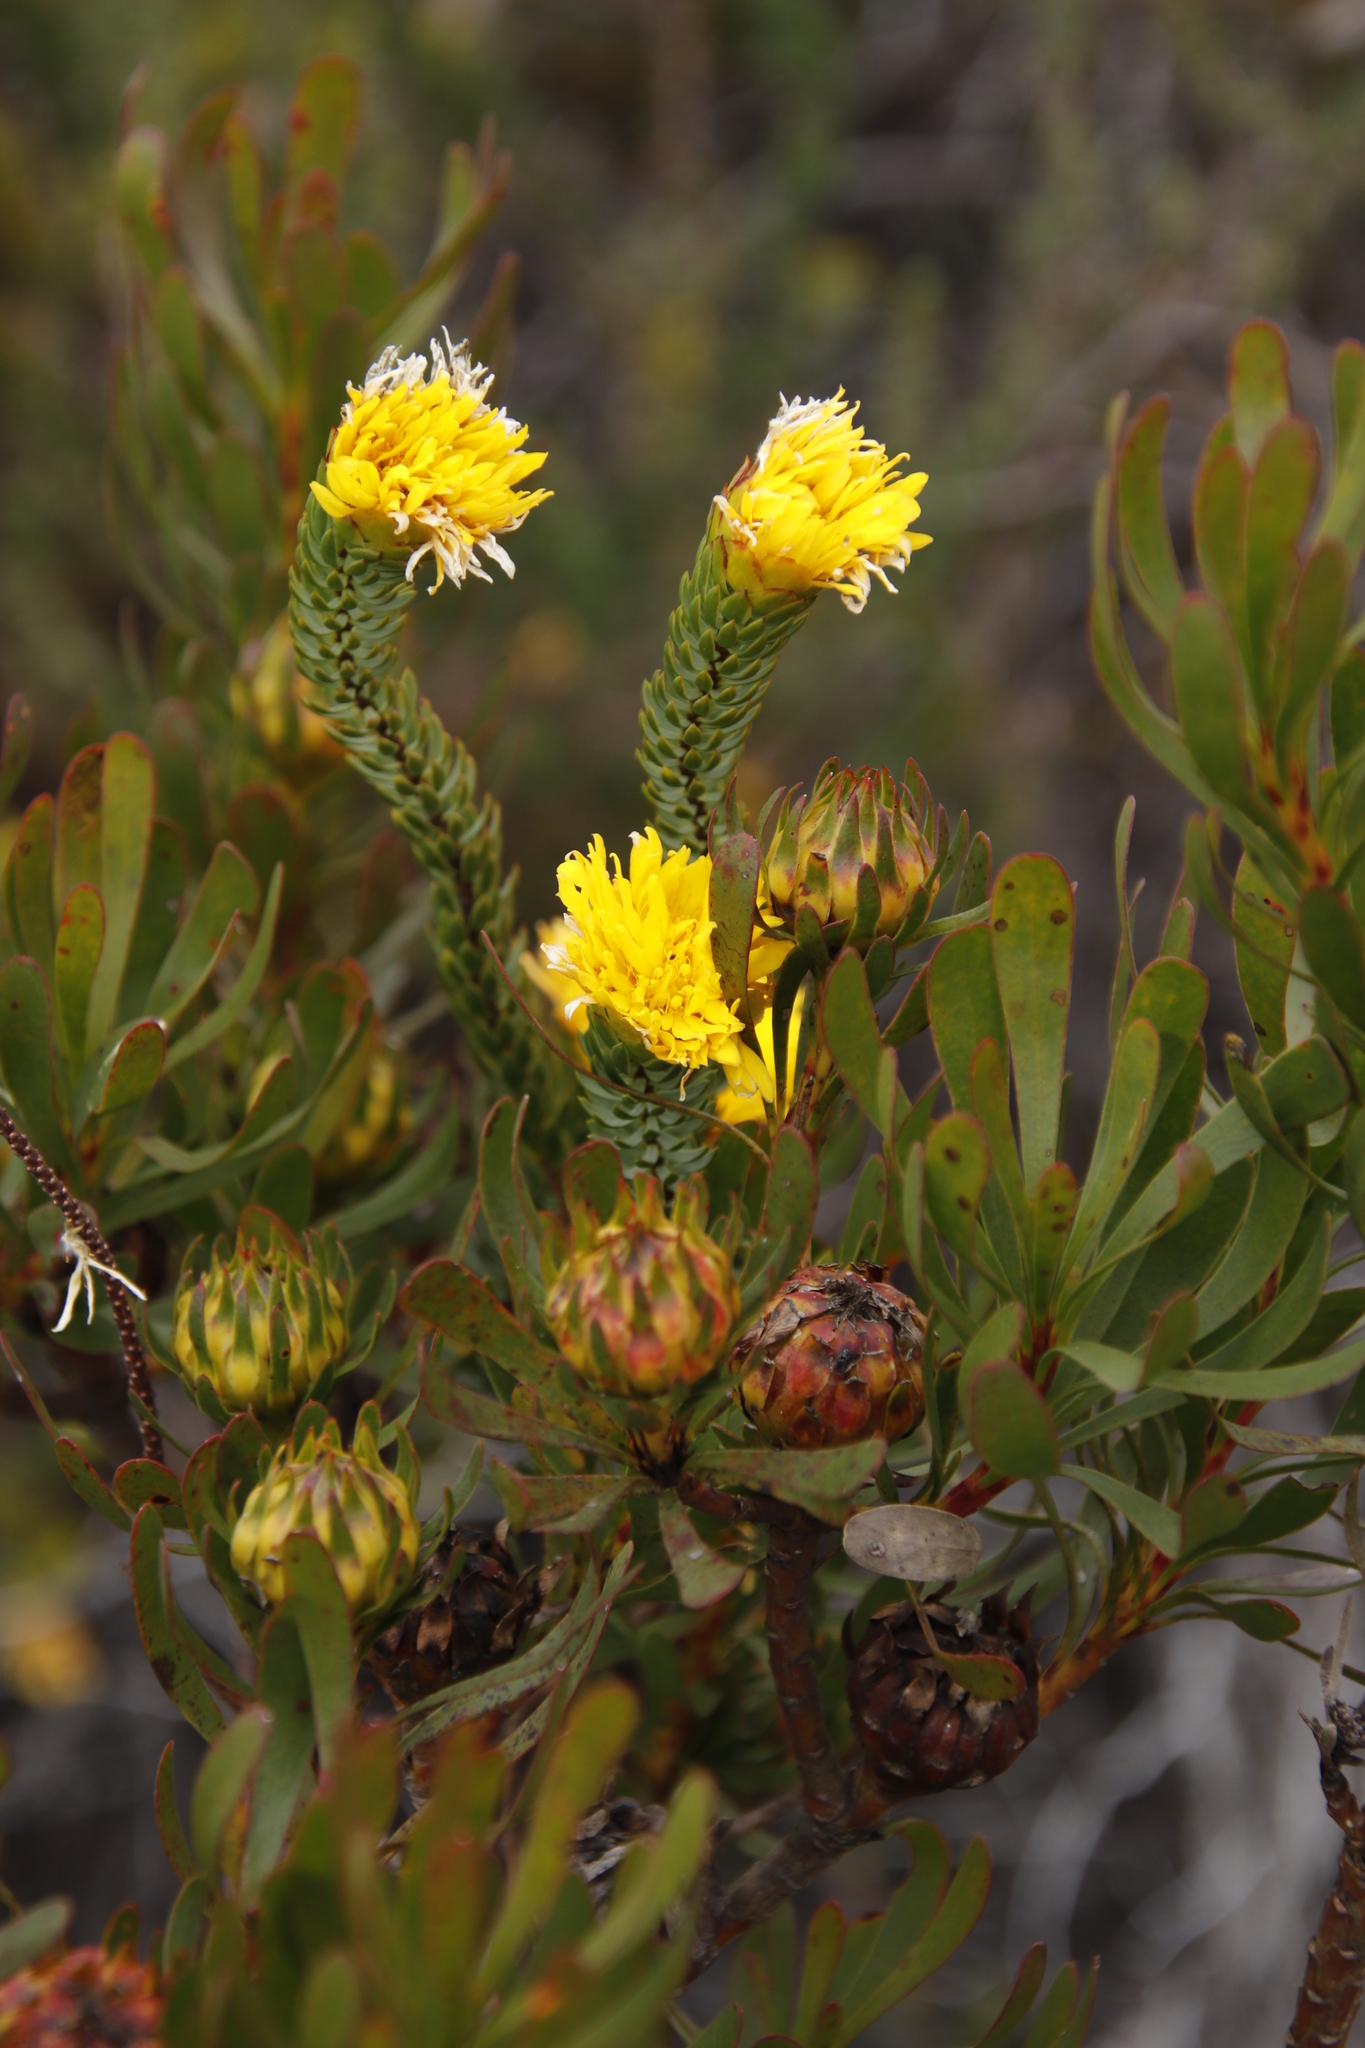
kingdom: Plantae
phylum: Tracheophyta
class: Magnoliopsida
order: Proteales
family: Proteaceae
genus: Aulax
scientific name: Aulax umbellata
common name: Broad-leaf featherbush
